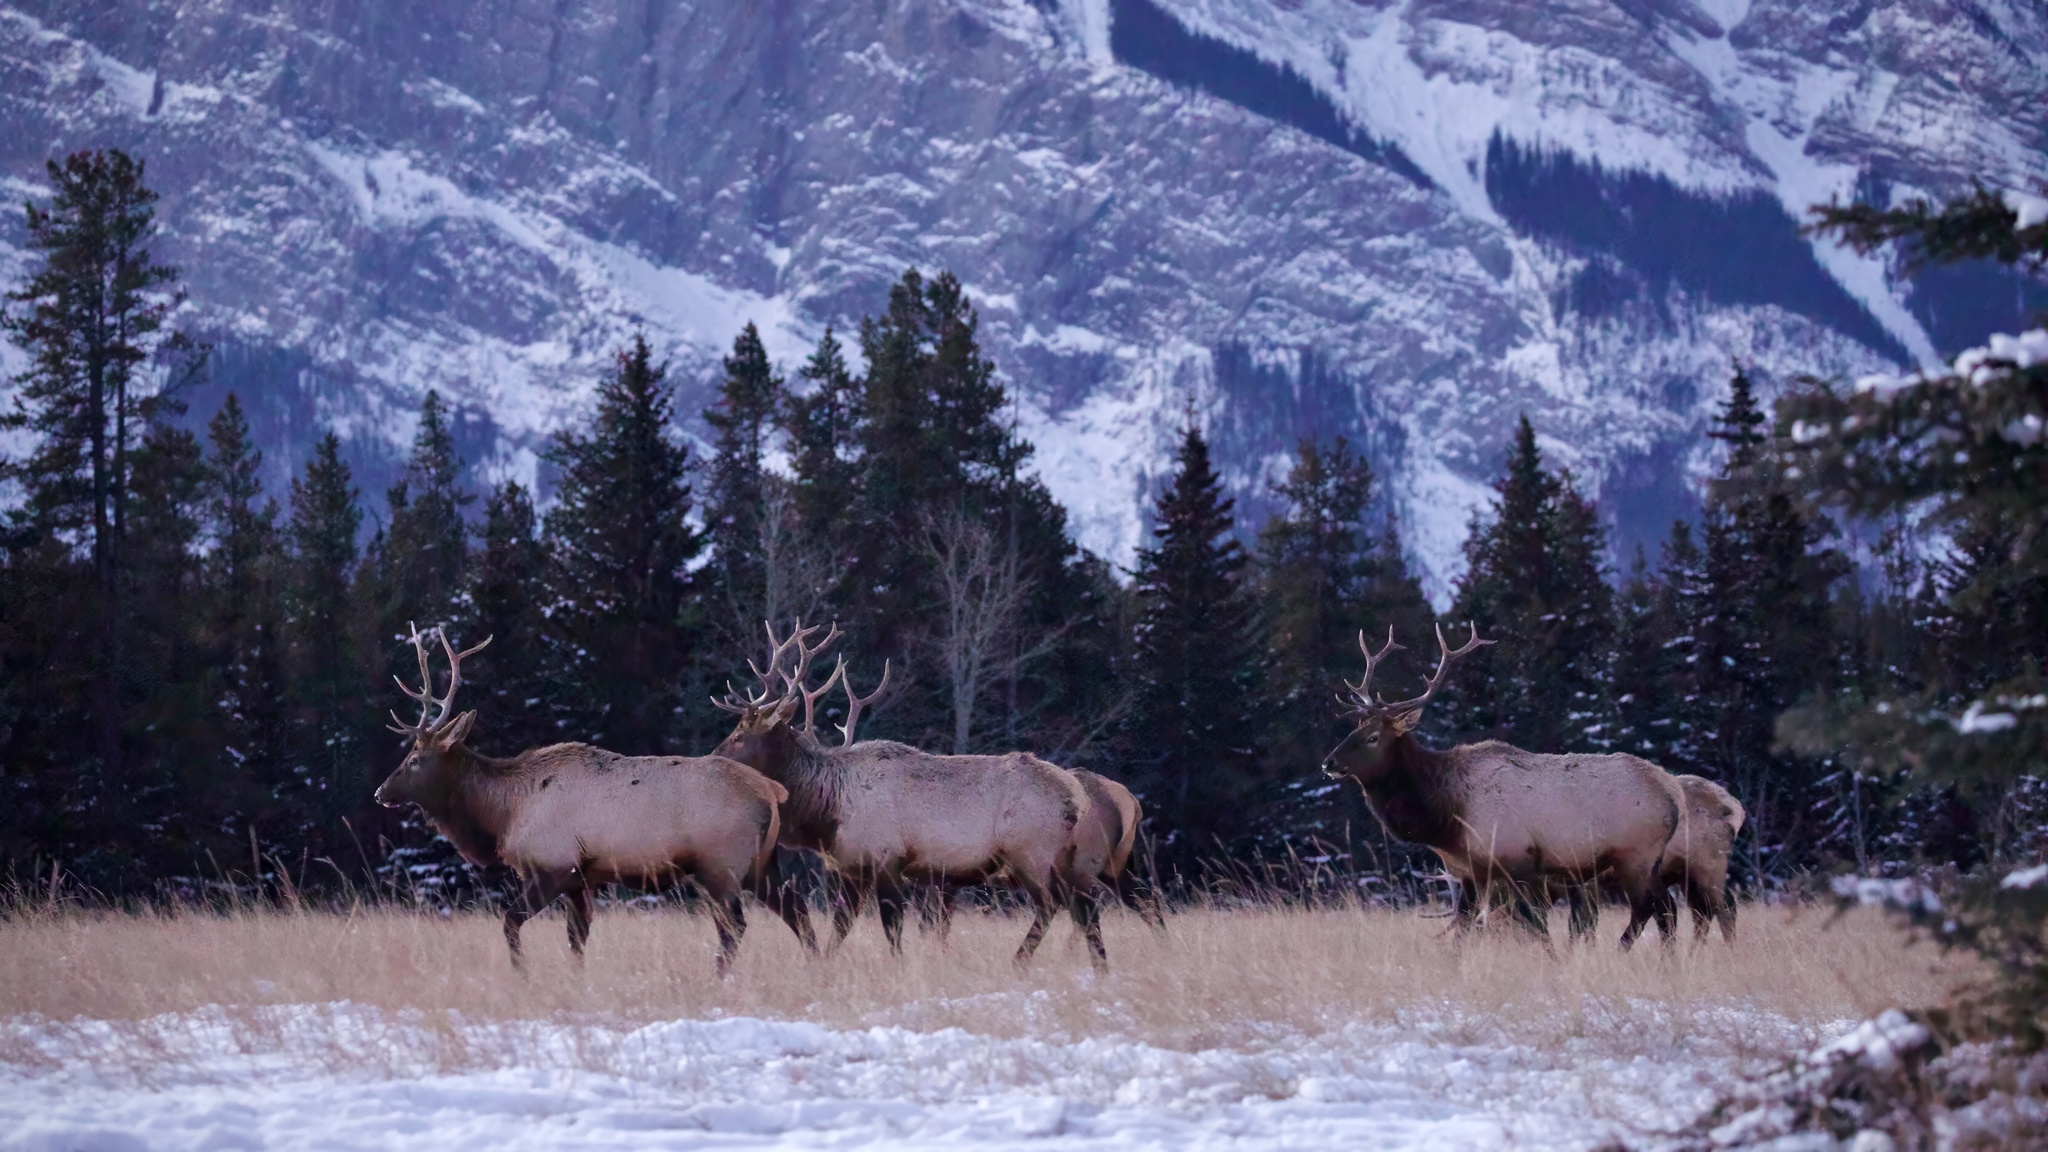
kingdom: Animalia
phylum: Chordata
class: Mammalia
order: Artiodactyla
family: Cervidae
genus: Cervus
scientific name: Cervus elaphus
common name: Red deer
